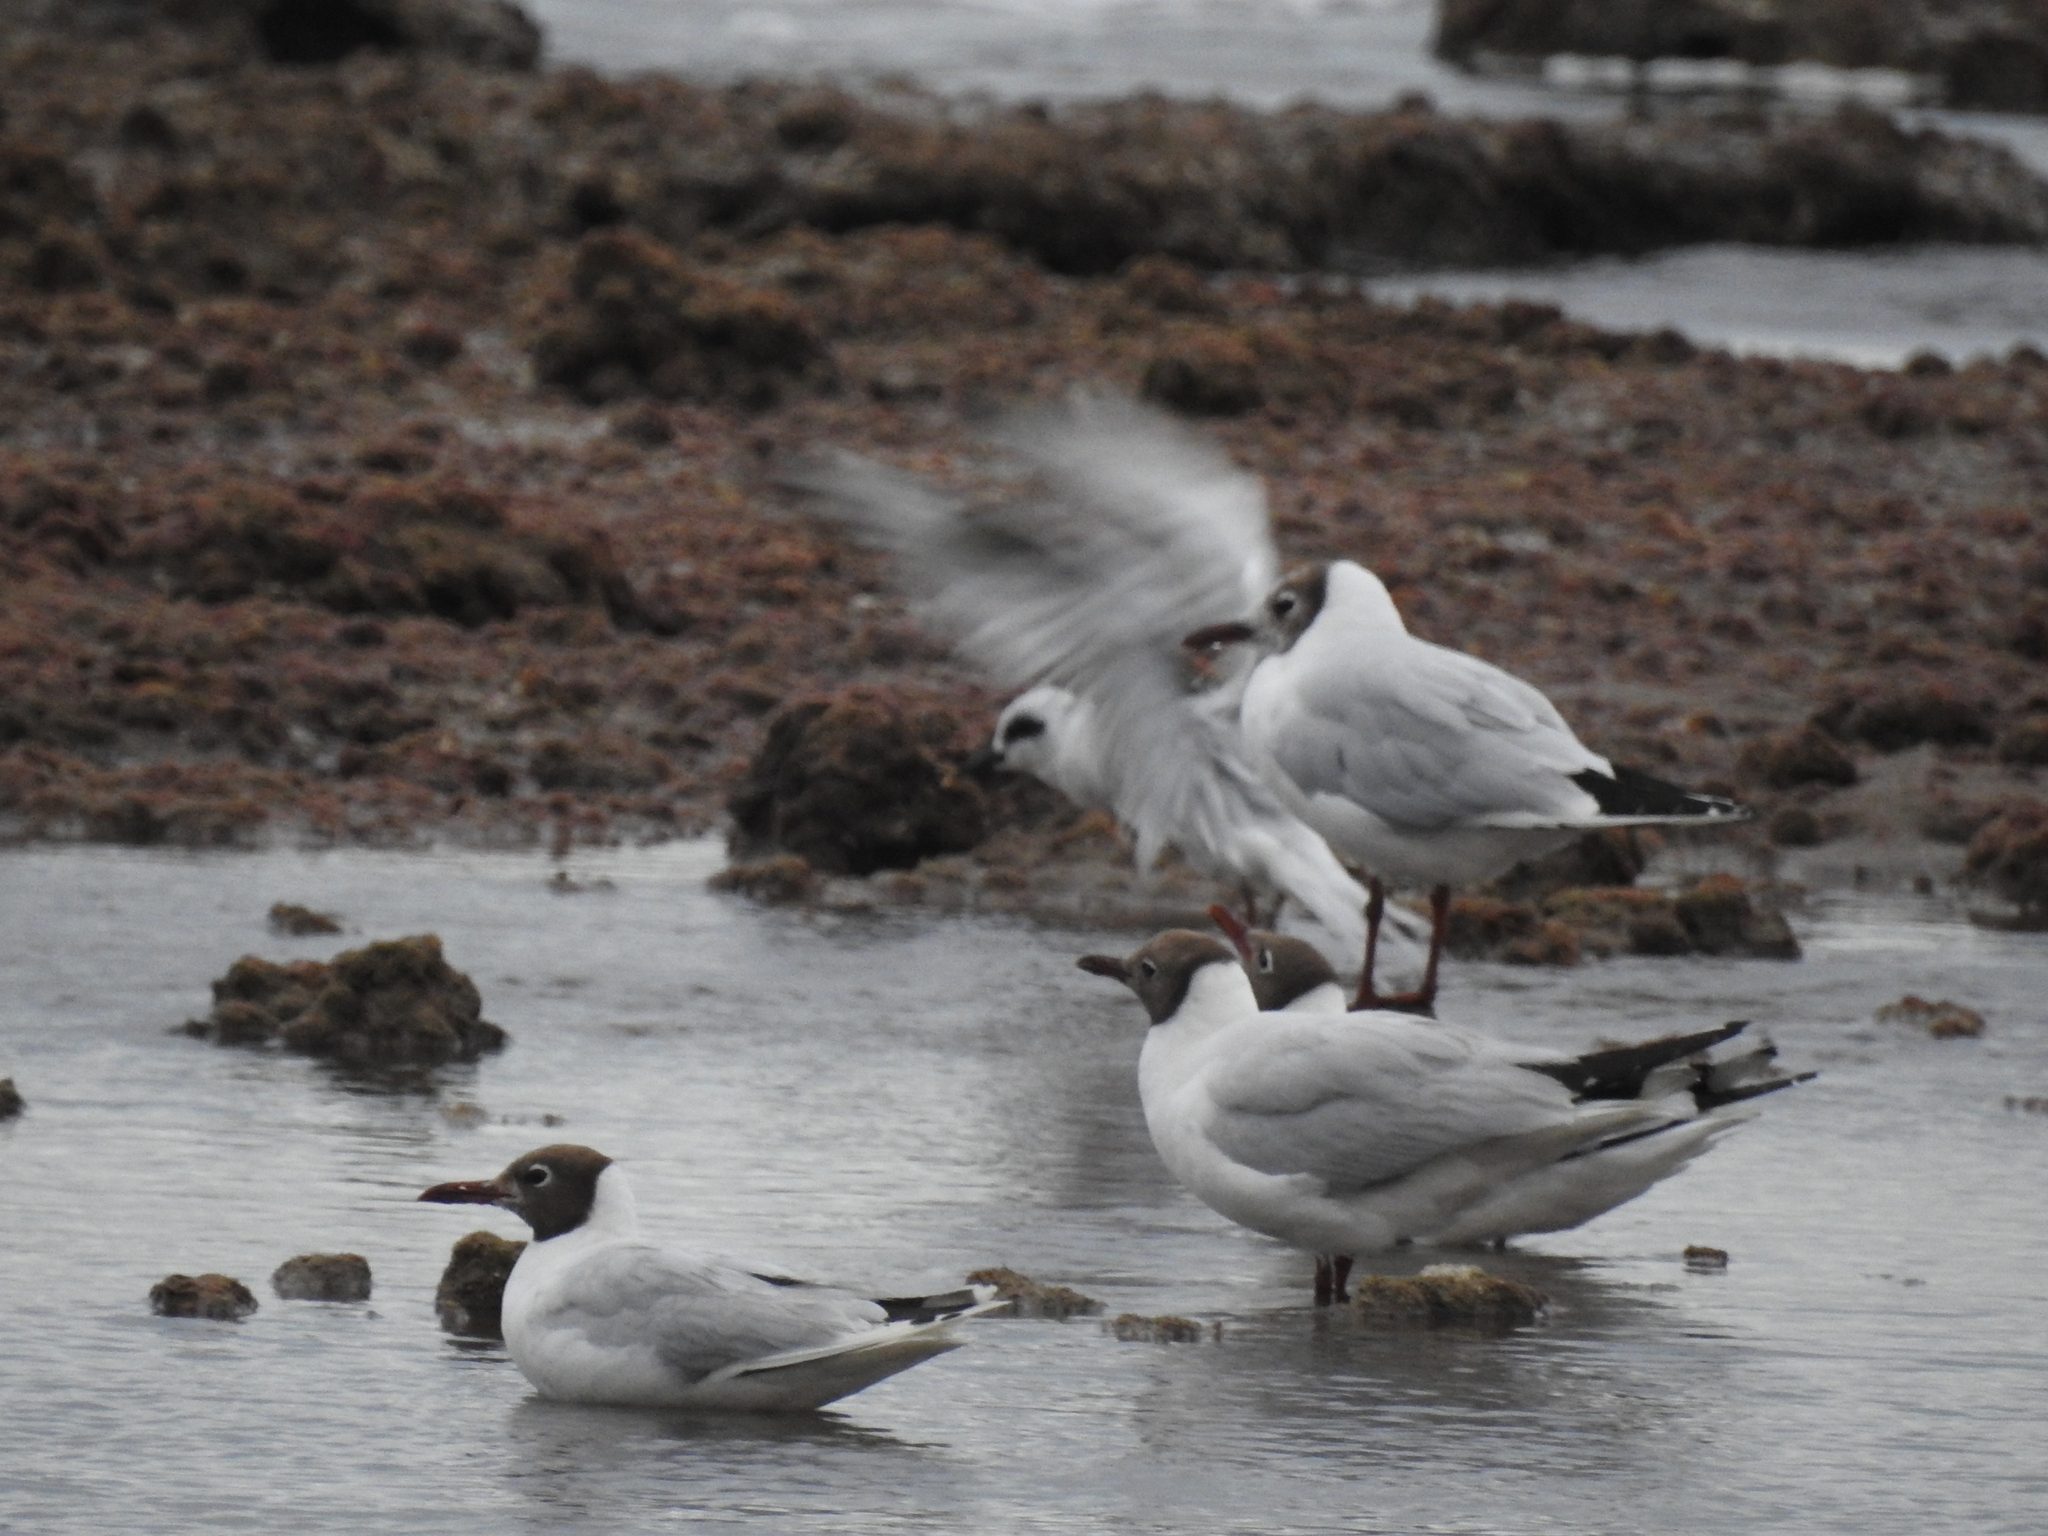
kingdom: Animalia
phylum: Chordata
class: Aves
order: Charadriiformes
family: Laridae
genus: Chroicocephalus
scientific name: Chroicocephalus maculipennis
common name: Brown-hooded gull
